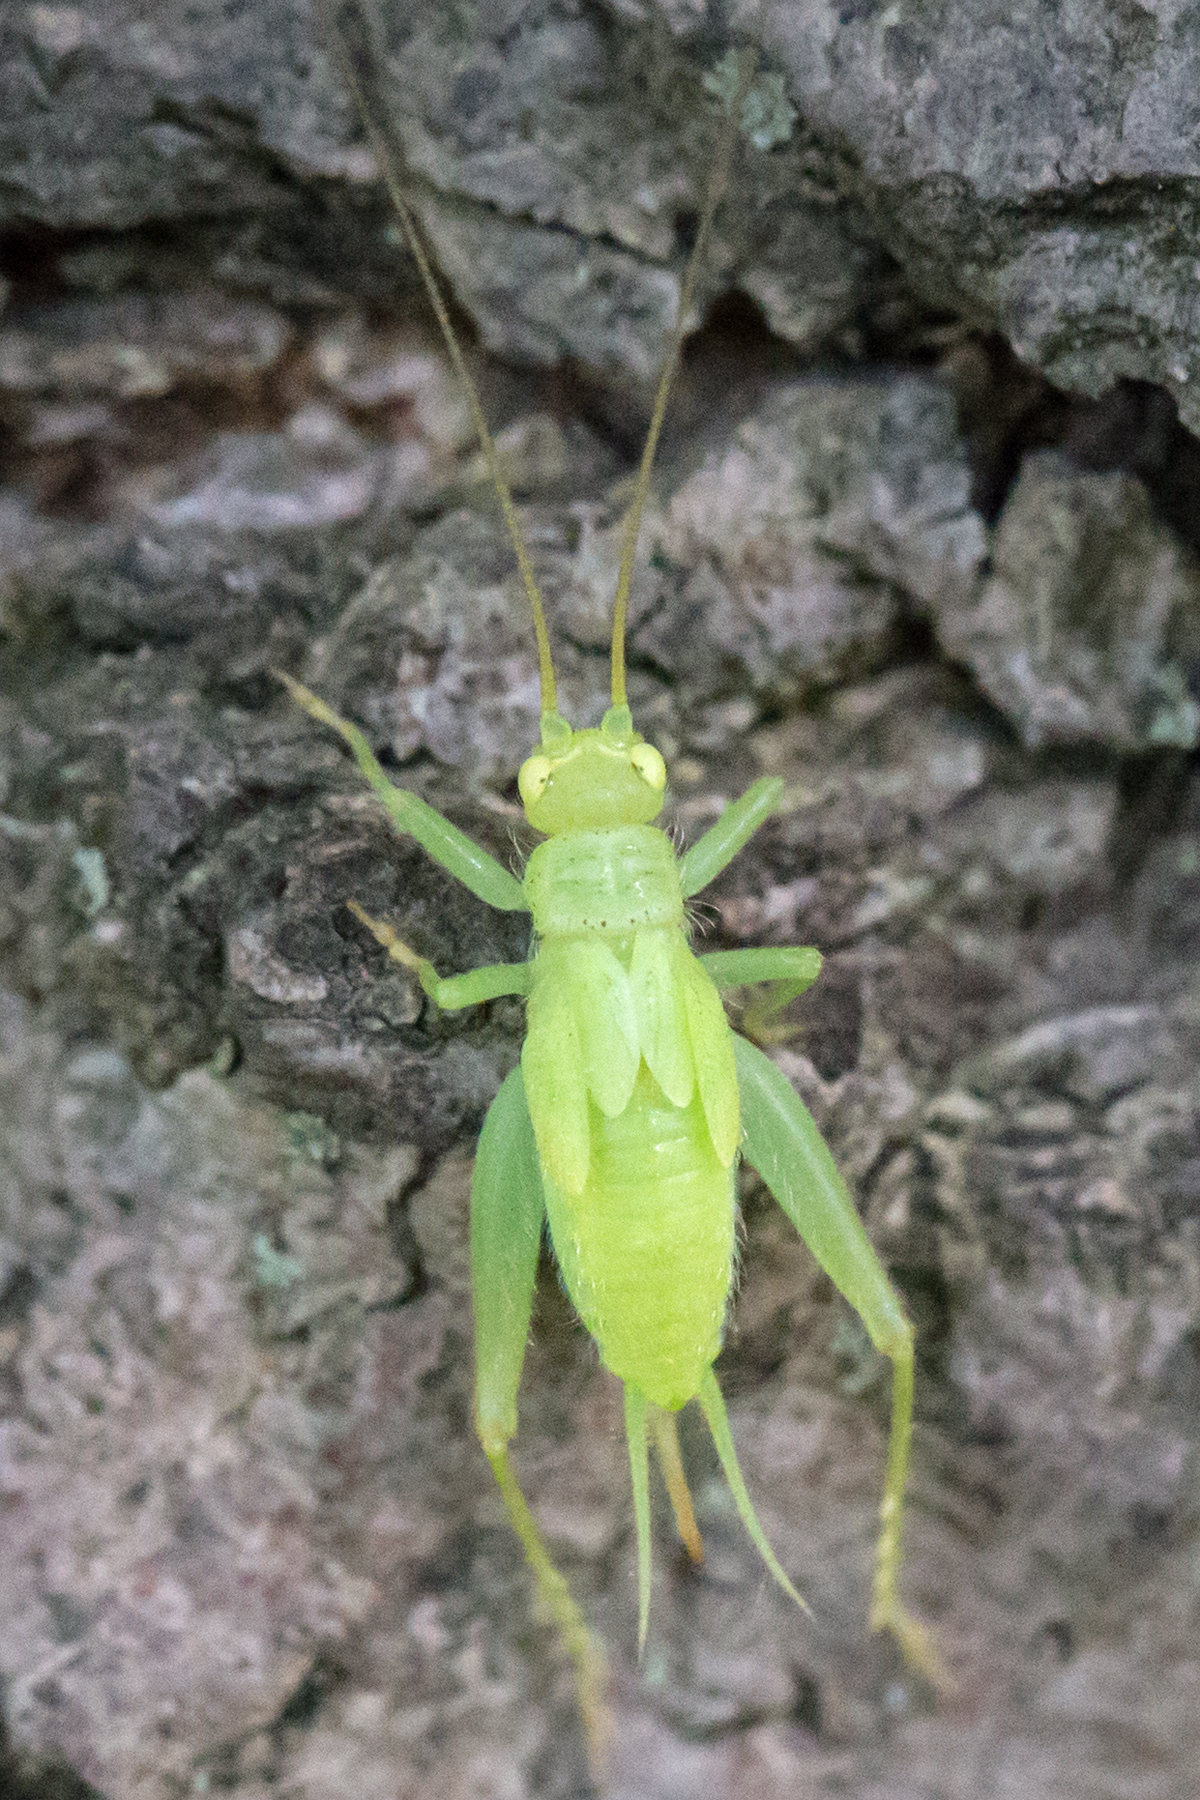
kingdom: Animalia
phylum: Arthropoda
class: Insecta
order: Orthoptera
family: Trigonidiidae
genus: Cyrtoxipha
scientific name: Cyrtoxipha columbiana
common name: Columbian trig
